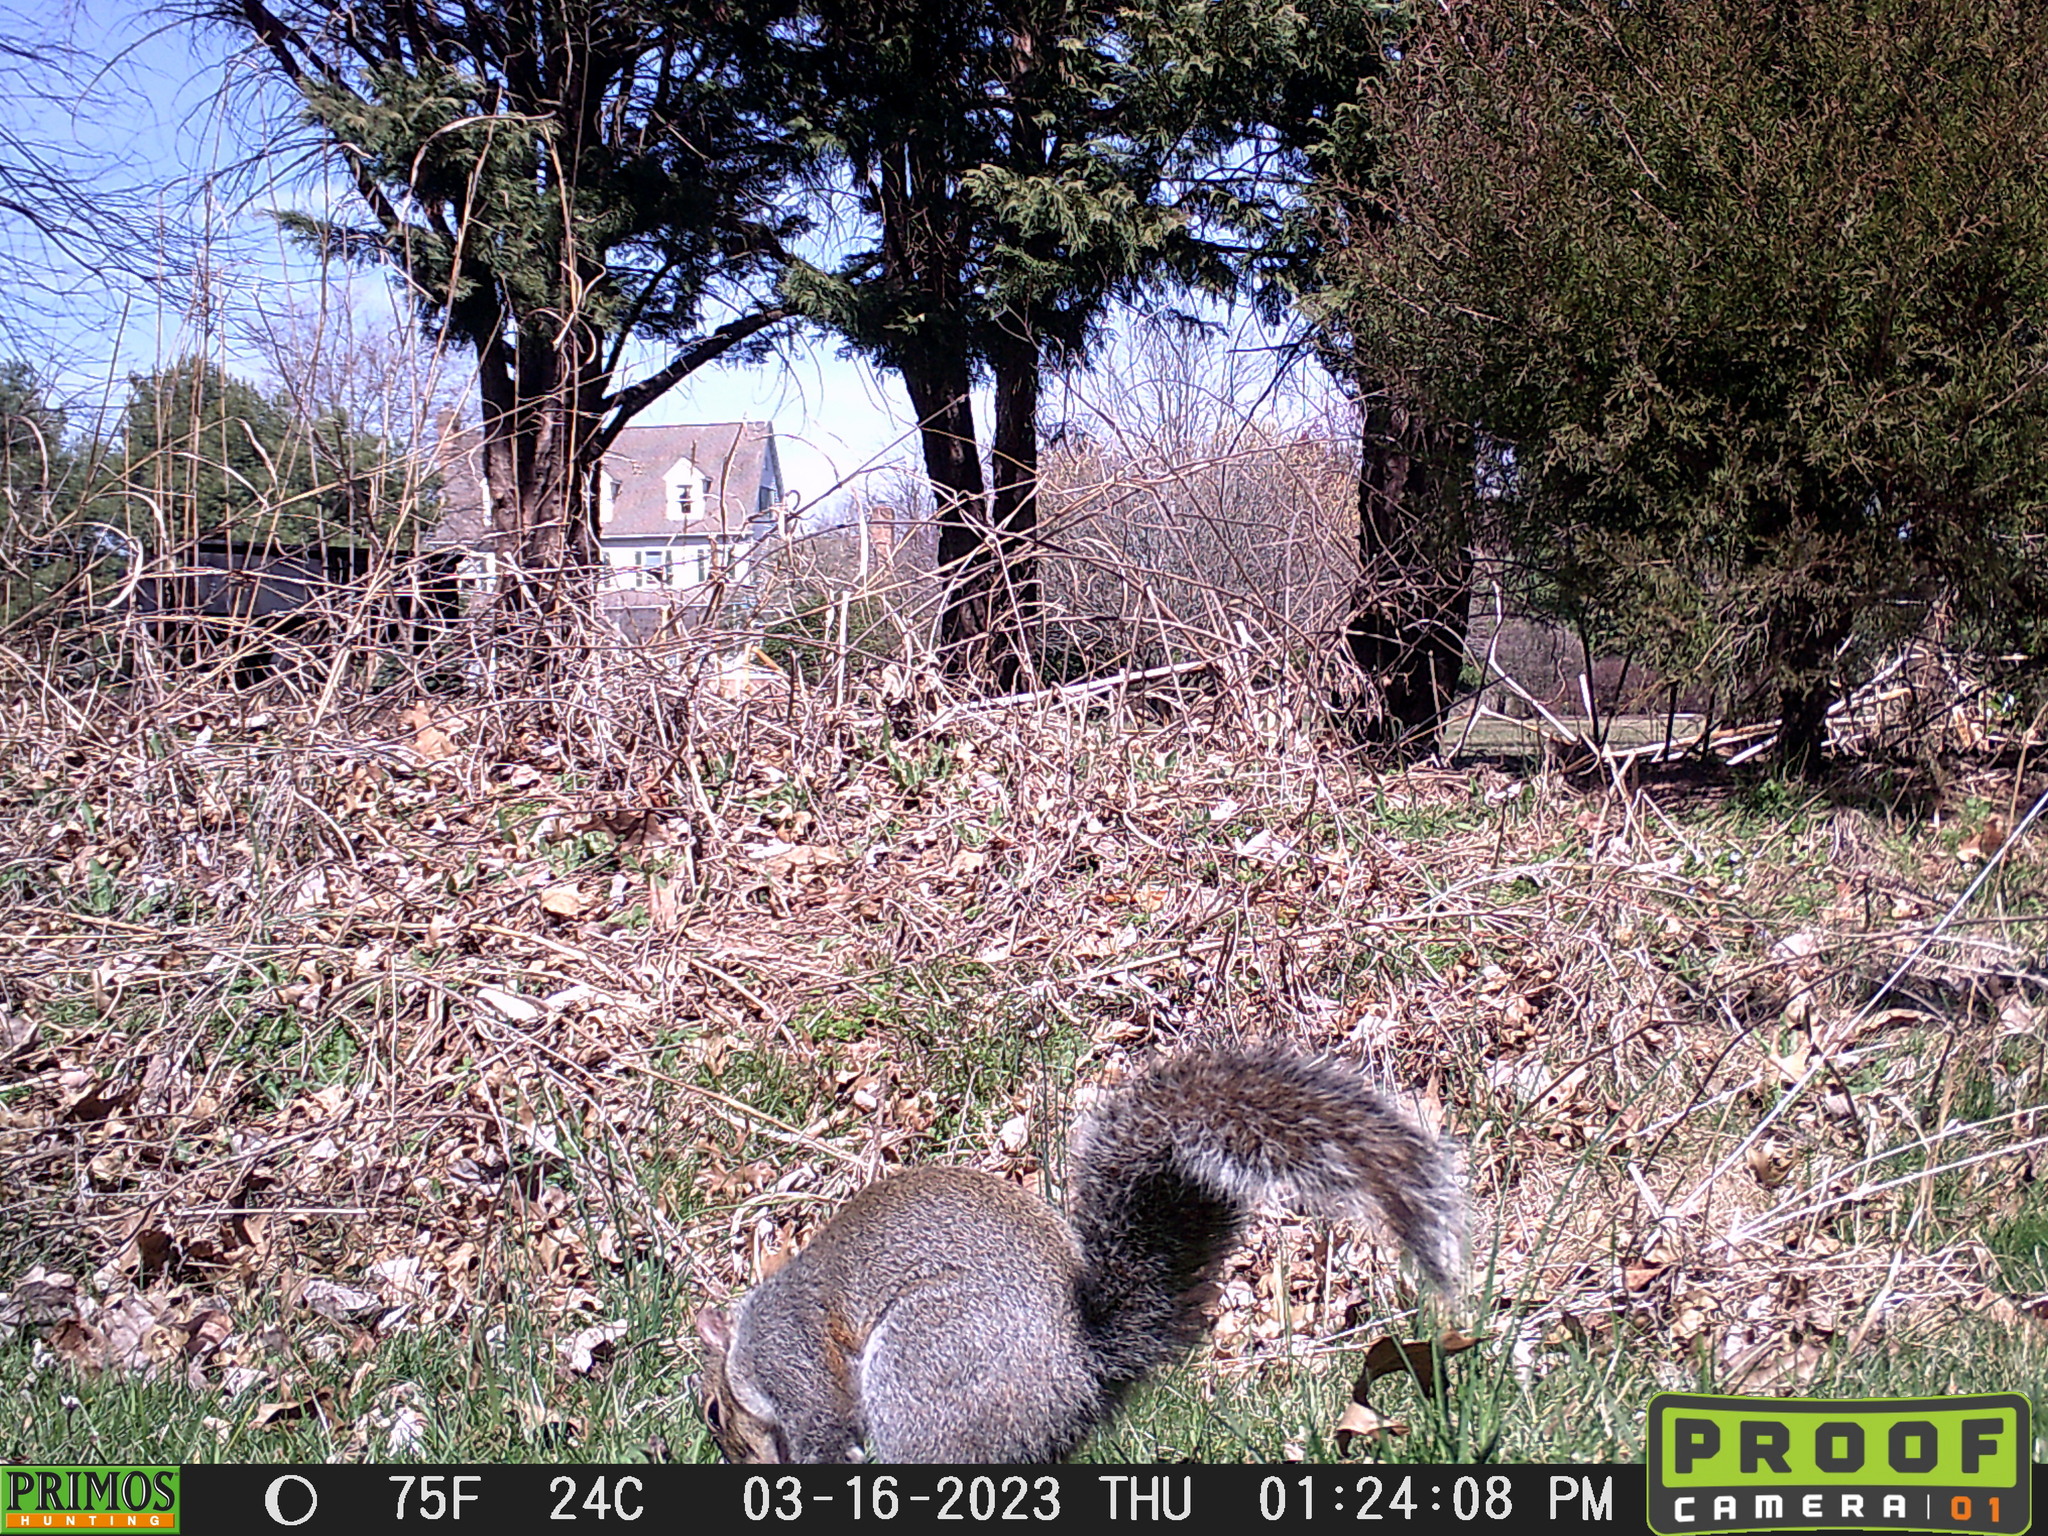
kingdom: Animalia
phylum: Chordata
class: Mammalia
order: Rodentia
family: Sciuridae
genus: Sciurus
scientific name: Sciurus carolinensis
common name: Eastern gray squirrel
